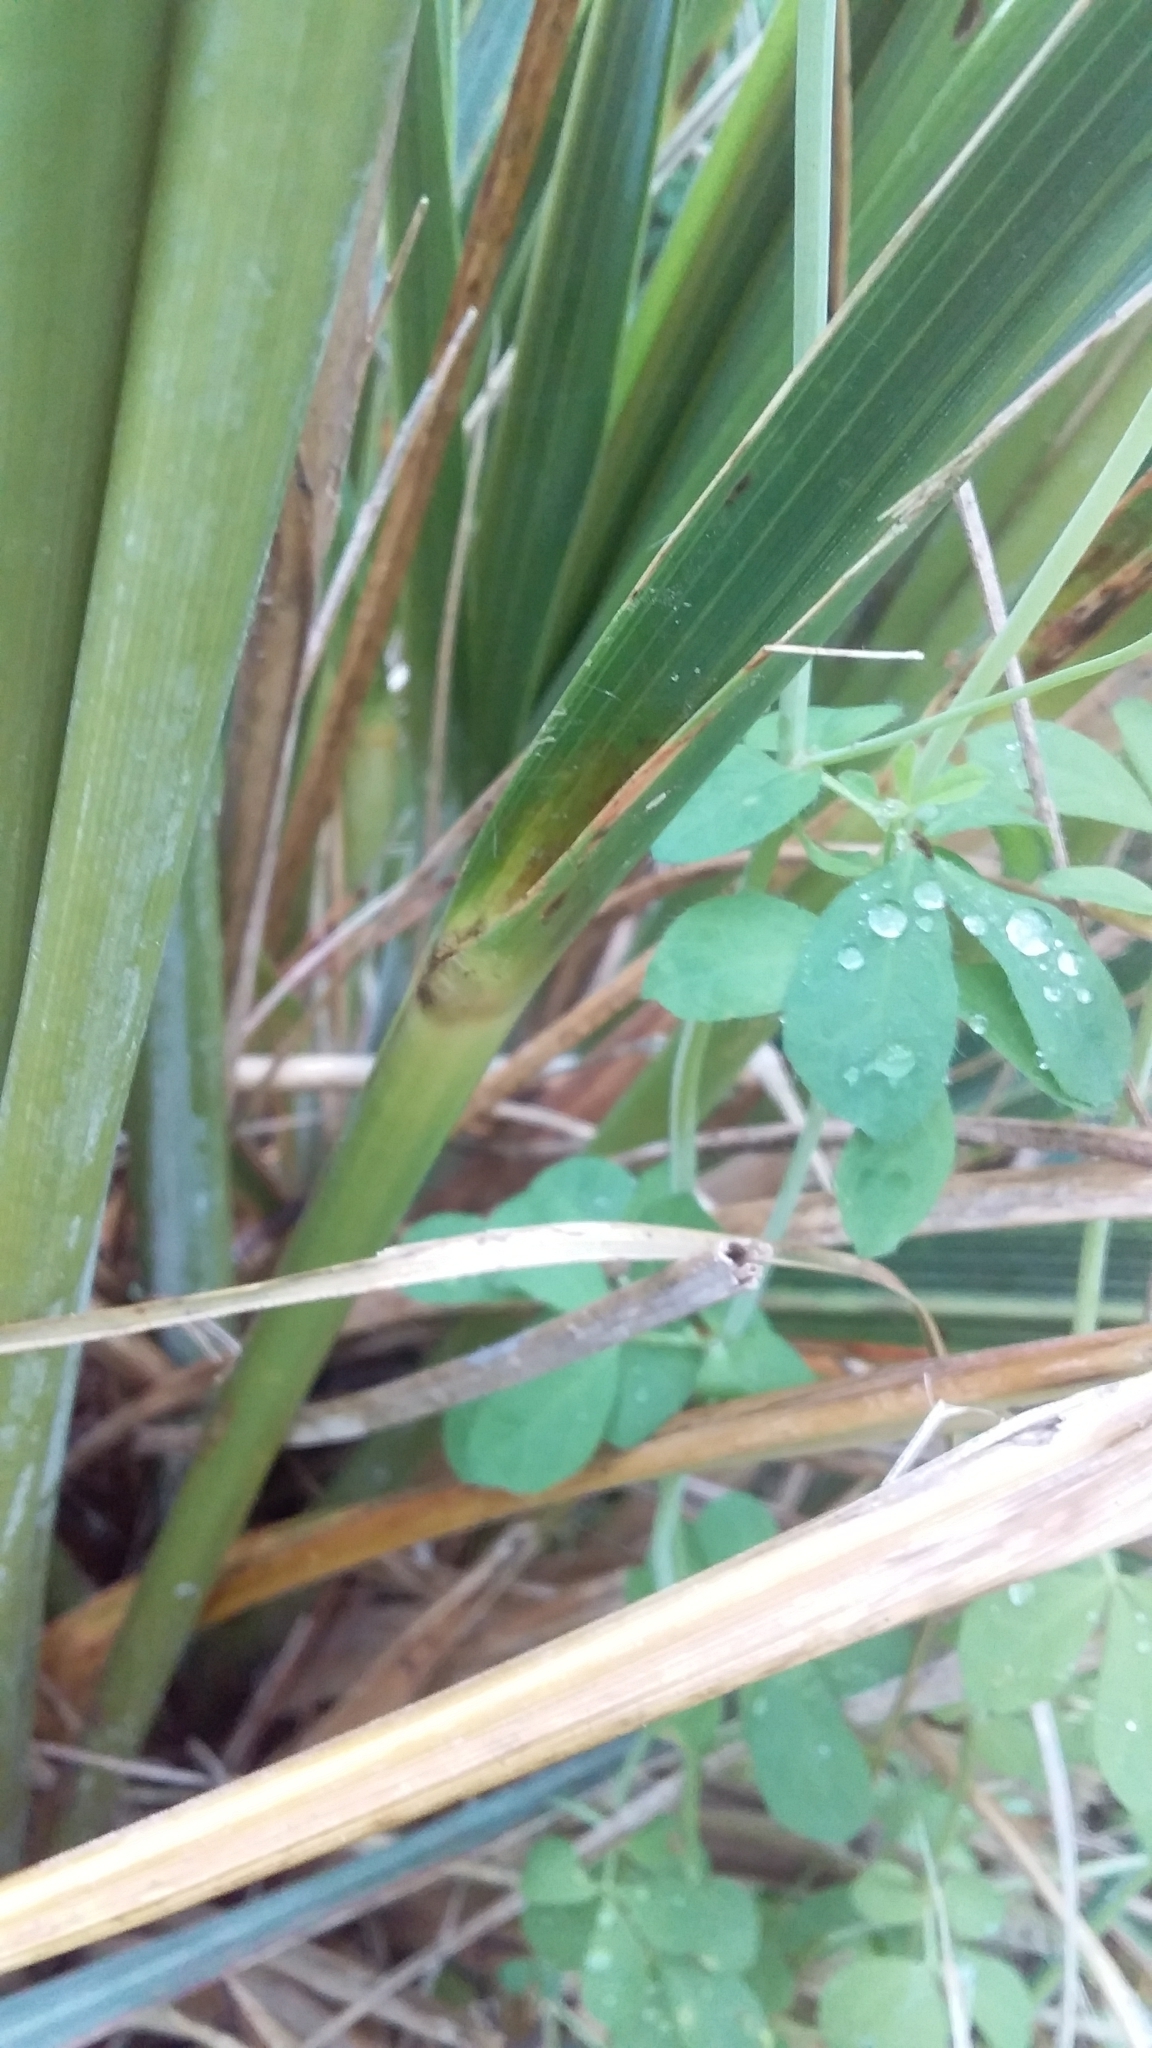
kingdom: Plantae
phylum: Tracheophyta
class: Liliopsida
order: Poales
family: Poaceae
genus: Austroderia
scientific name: Austroderia fulvida
